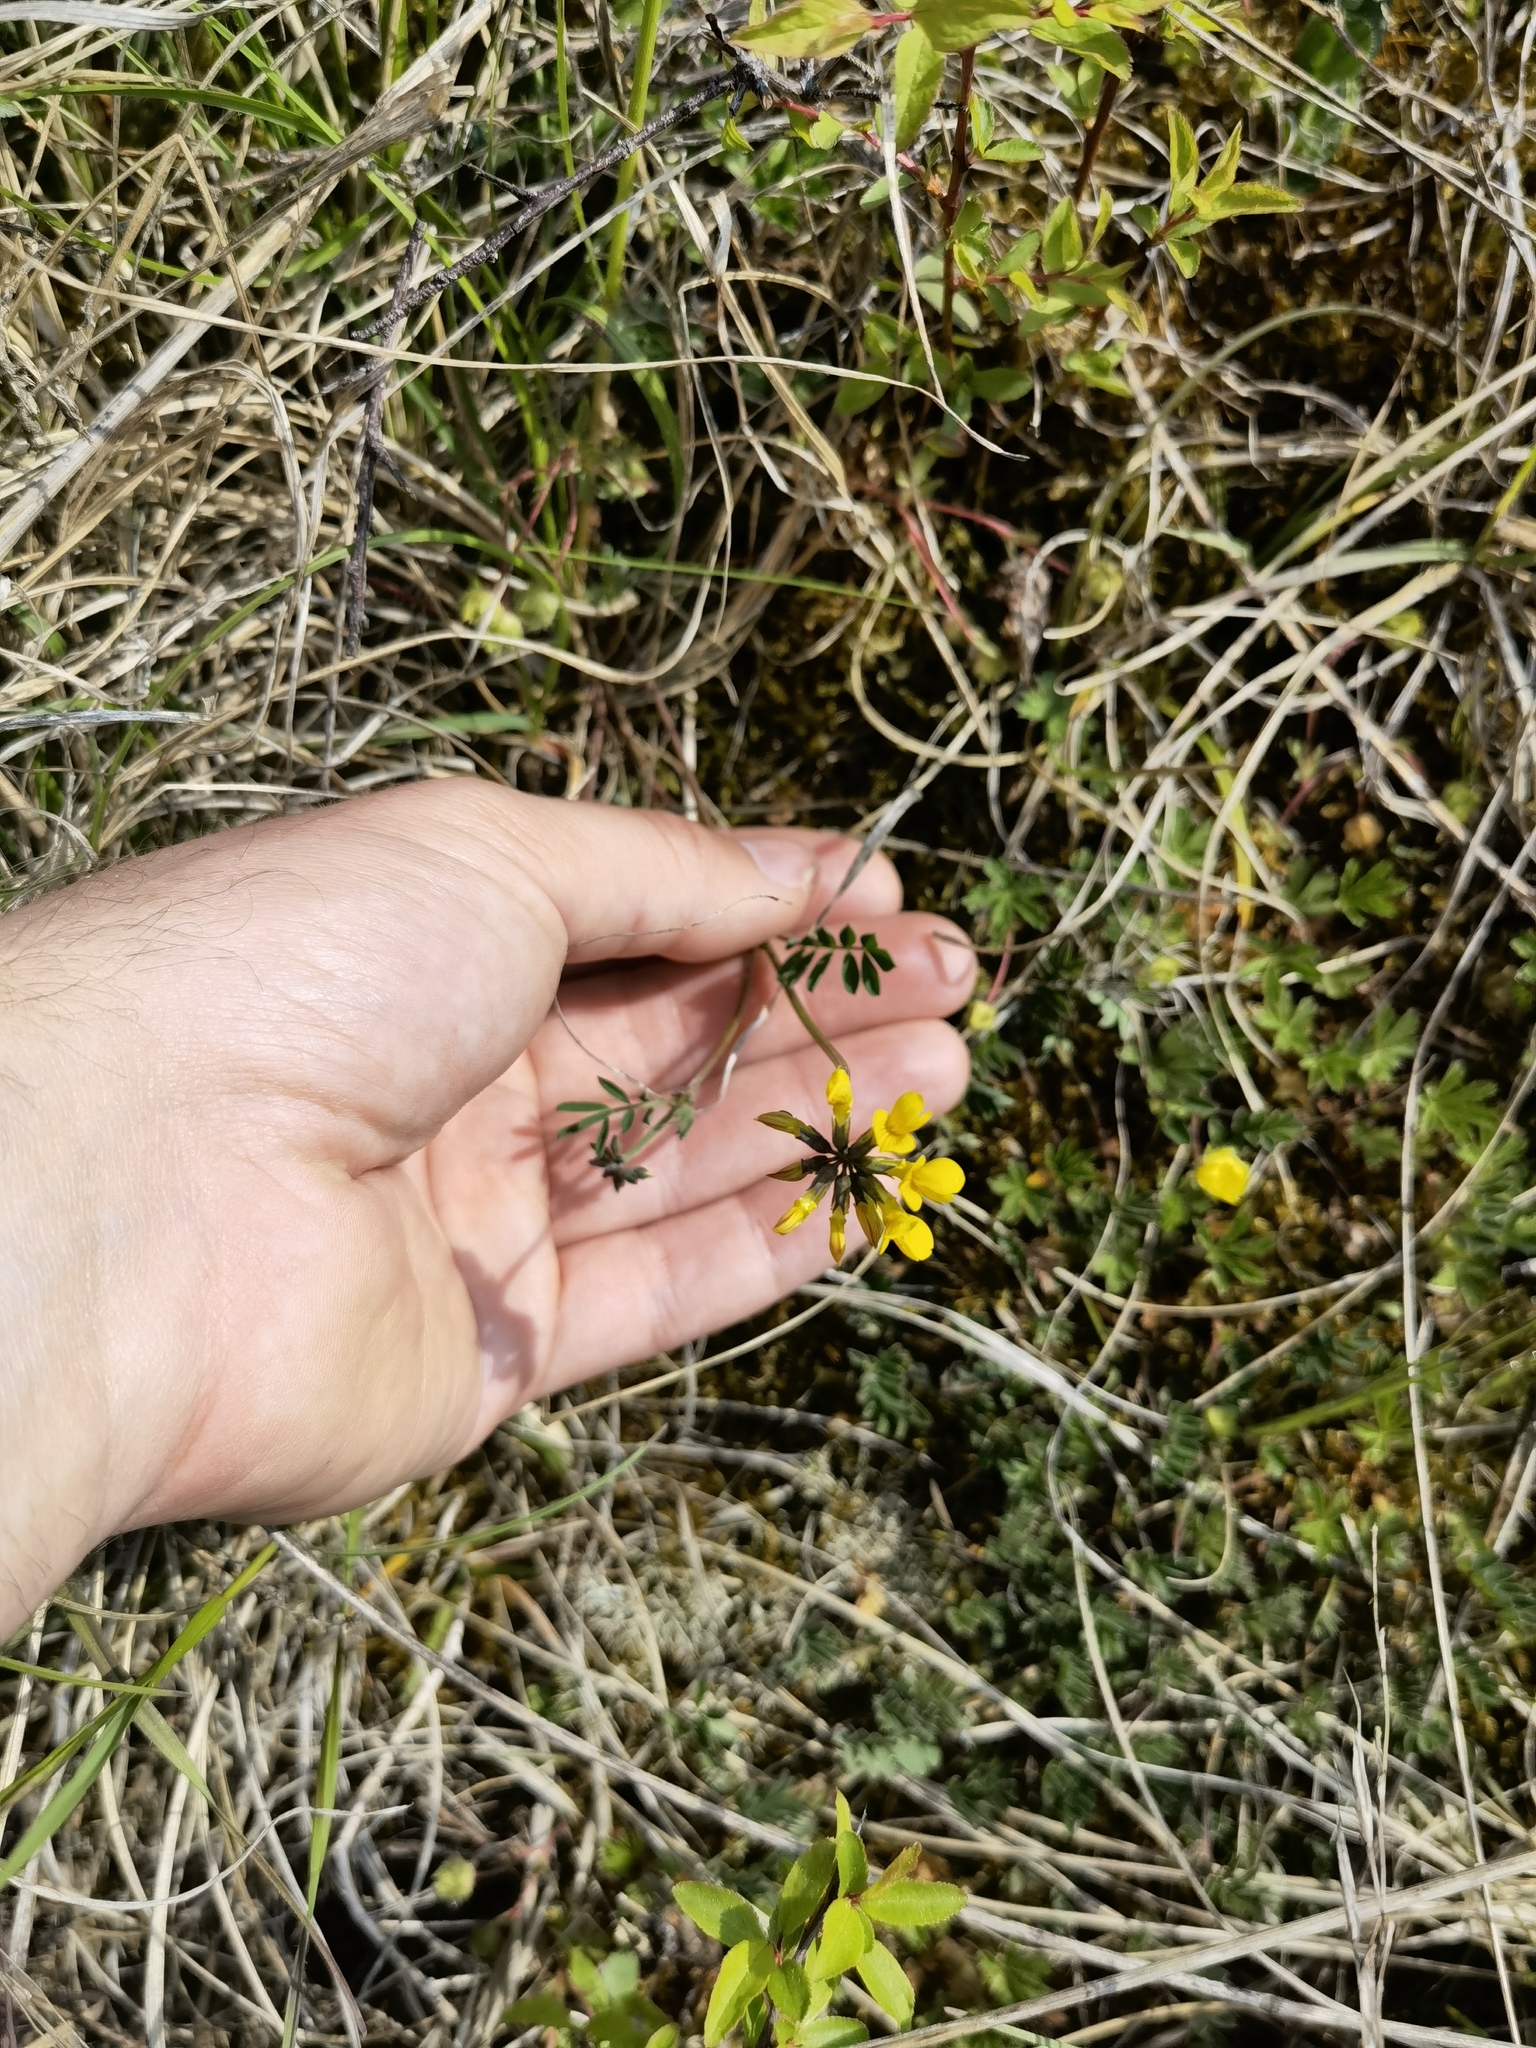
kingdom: Plantae
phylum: Tracheophyta
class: Magnoliopsida
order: Fabales
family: Fabaceae
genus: Hippocrepis
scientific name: Hippocrepis comosa
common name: Horseshoe vetch
